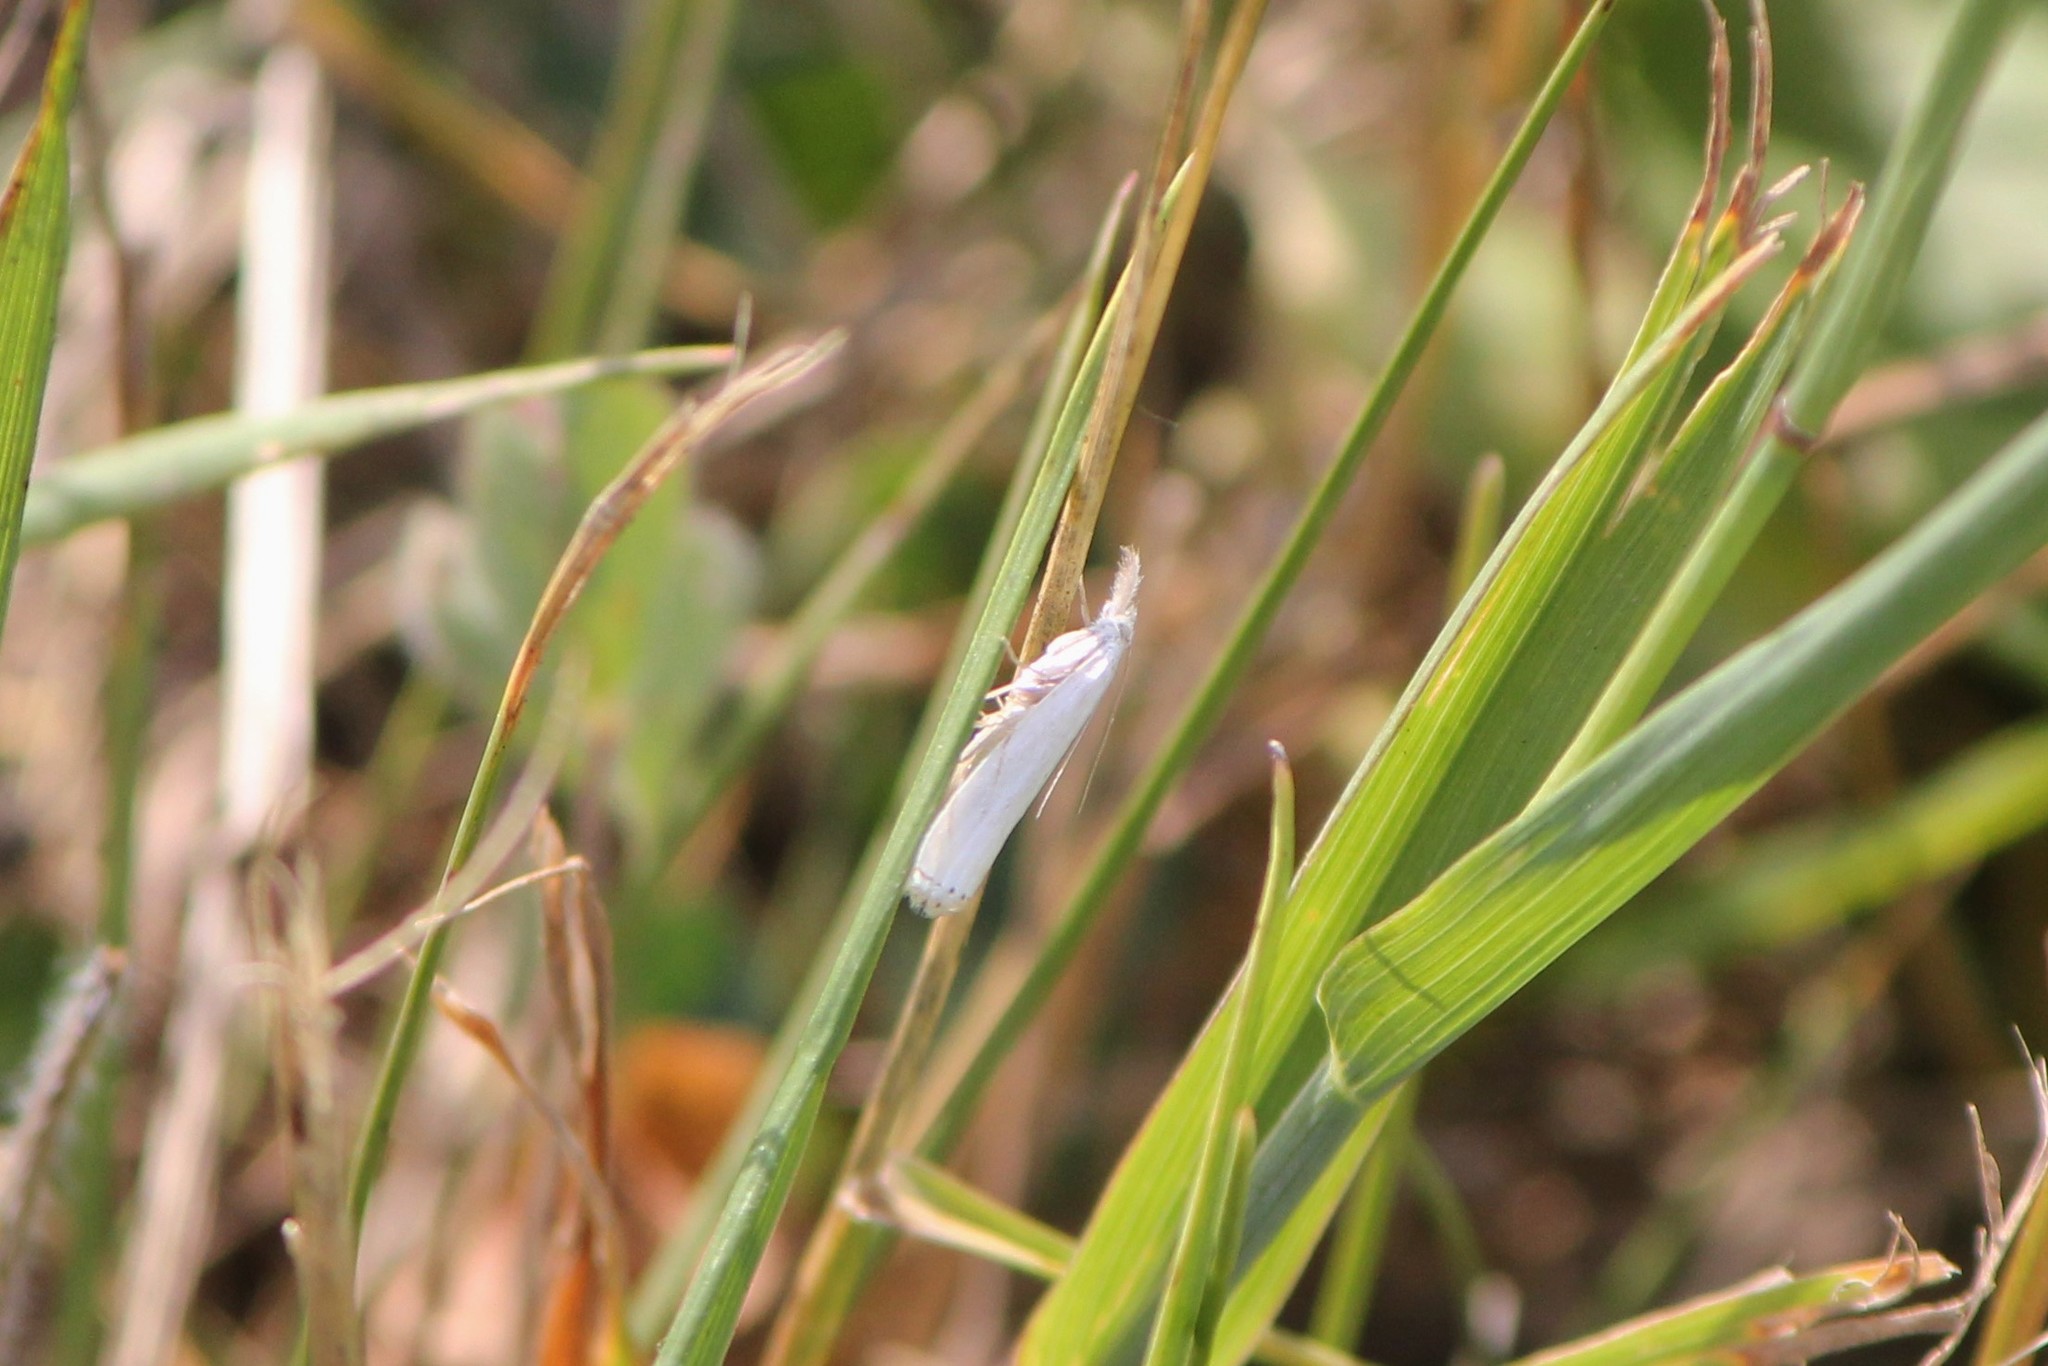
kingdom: Animalia
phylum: Arthropoda
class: Insecta
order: Lepidoptera
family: Crambidae
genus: Crambus
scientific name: Crambus albellus
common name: Small white grass-veneer
